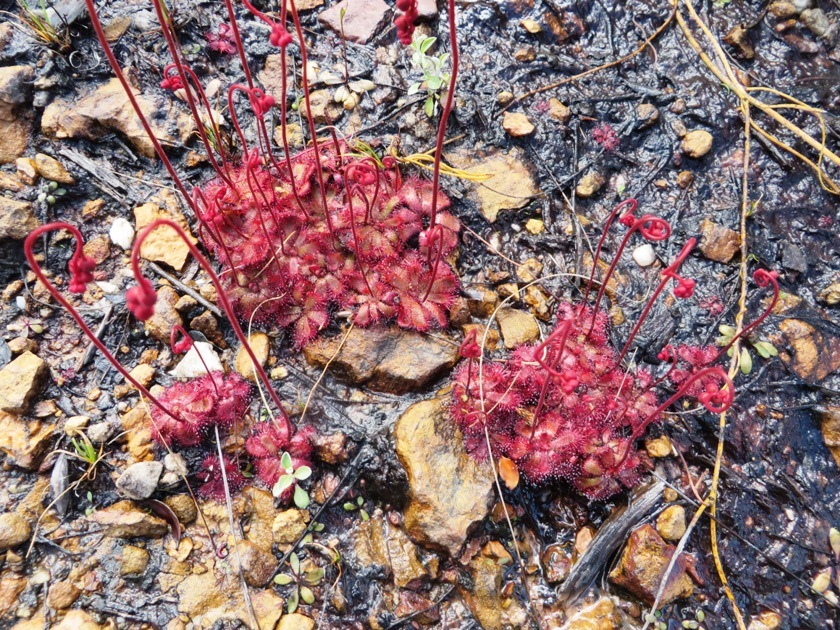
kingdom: Plantae
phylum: Tracheophyta
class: Magnoliopsida
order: Caryophyllales
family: Droseraceae
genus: Drosera
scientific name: Drosera aliciae
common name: Alice sundew
